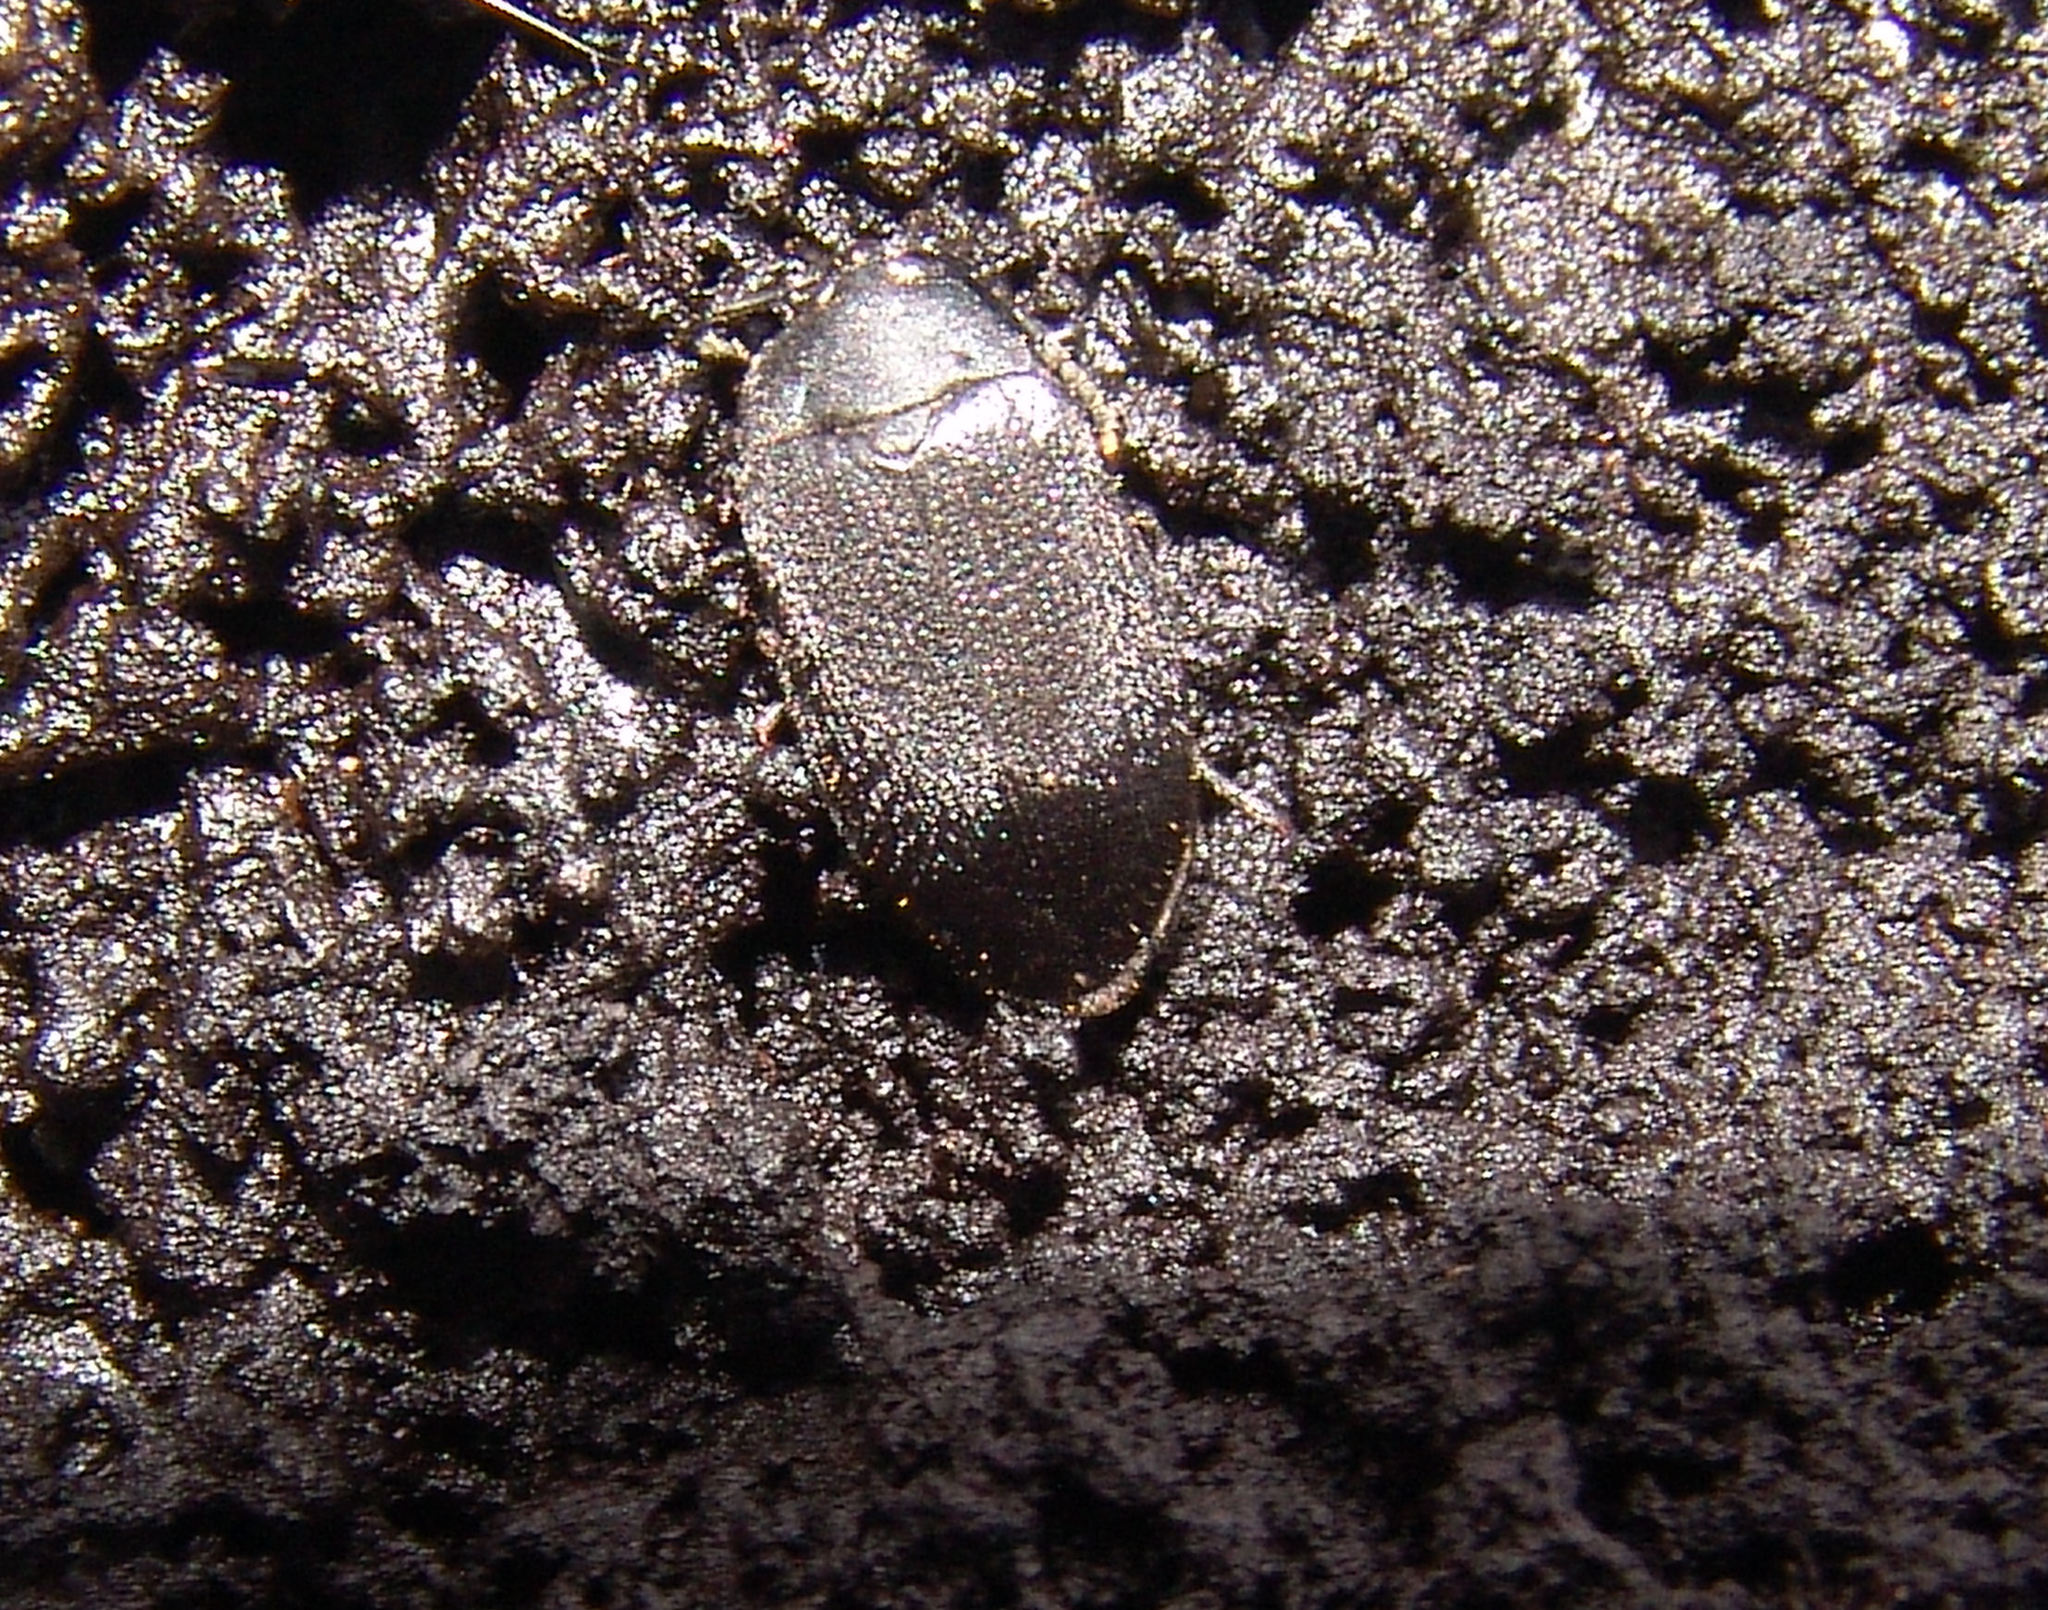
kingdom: Animalia
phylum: Arthropoda
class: Insecta
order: Coleoptera
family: Tetratomidae
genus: Penthe
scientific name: Penthe pimelia
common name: Velvety bark beetle
